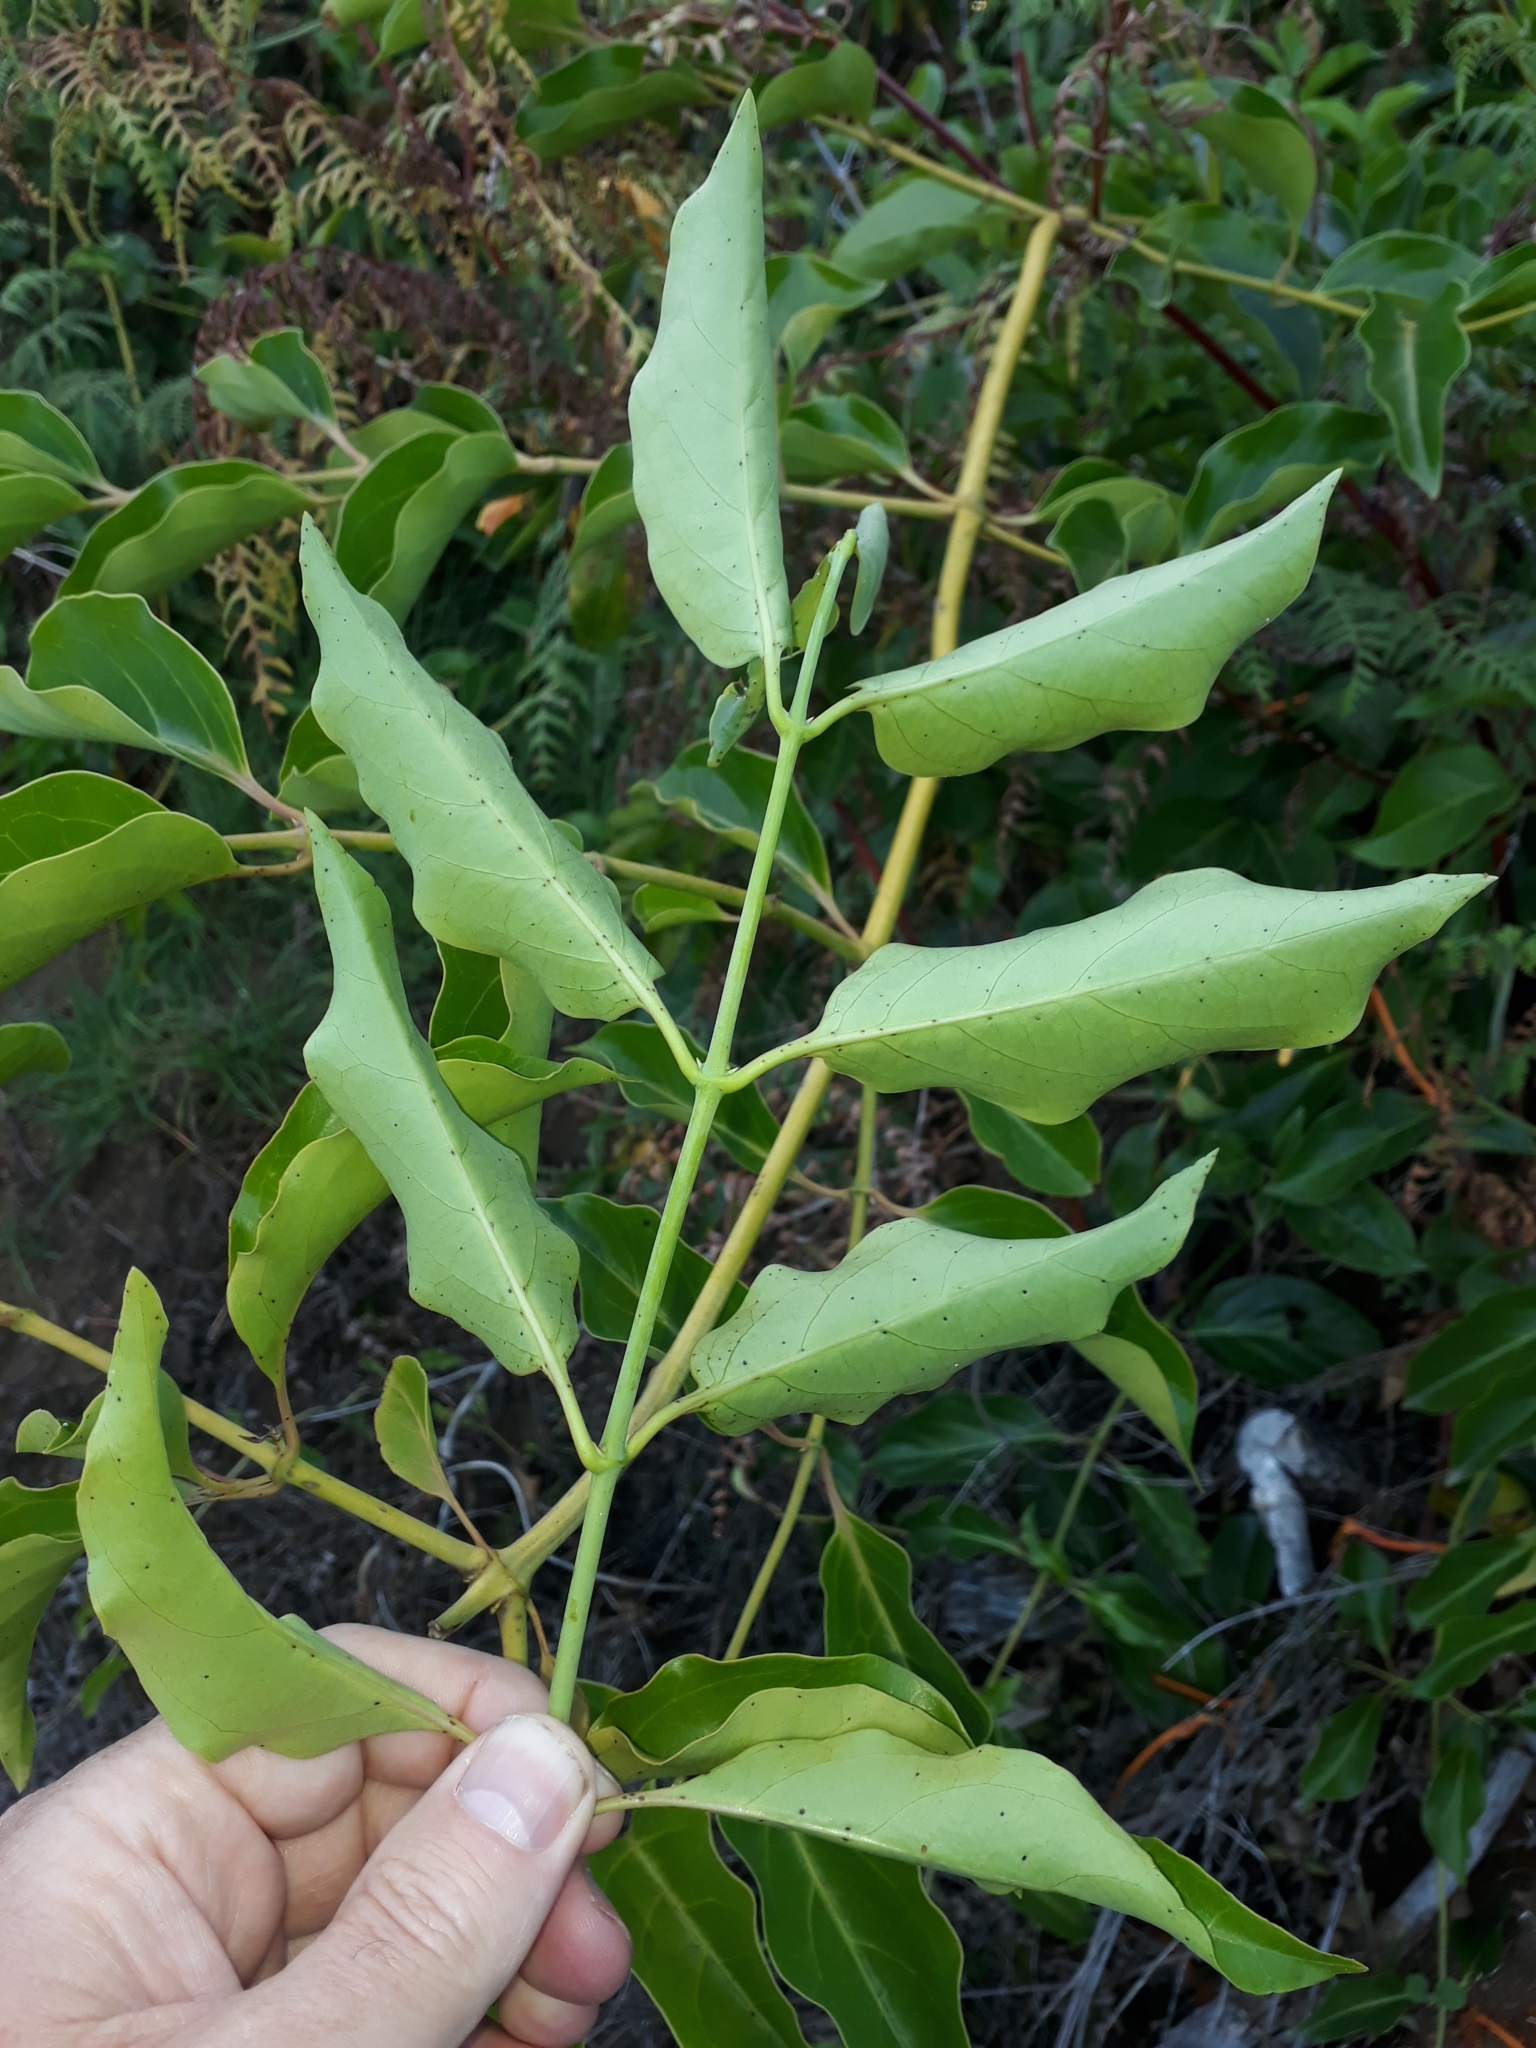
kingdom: Plantae
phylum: Tracheophyta
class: Magnoliopsida
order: Dipsacales
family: Caprifoliaceae
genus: Lonicera
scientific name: Lonicera hildebrandtiana
